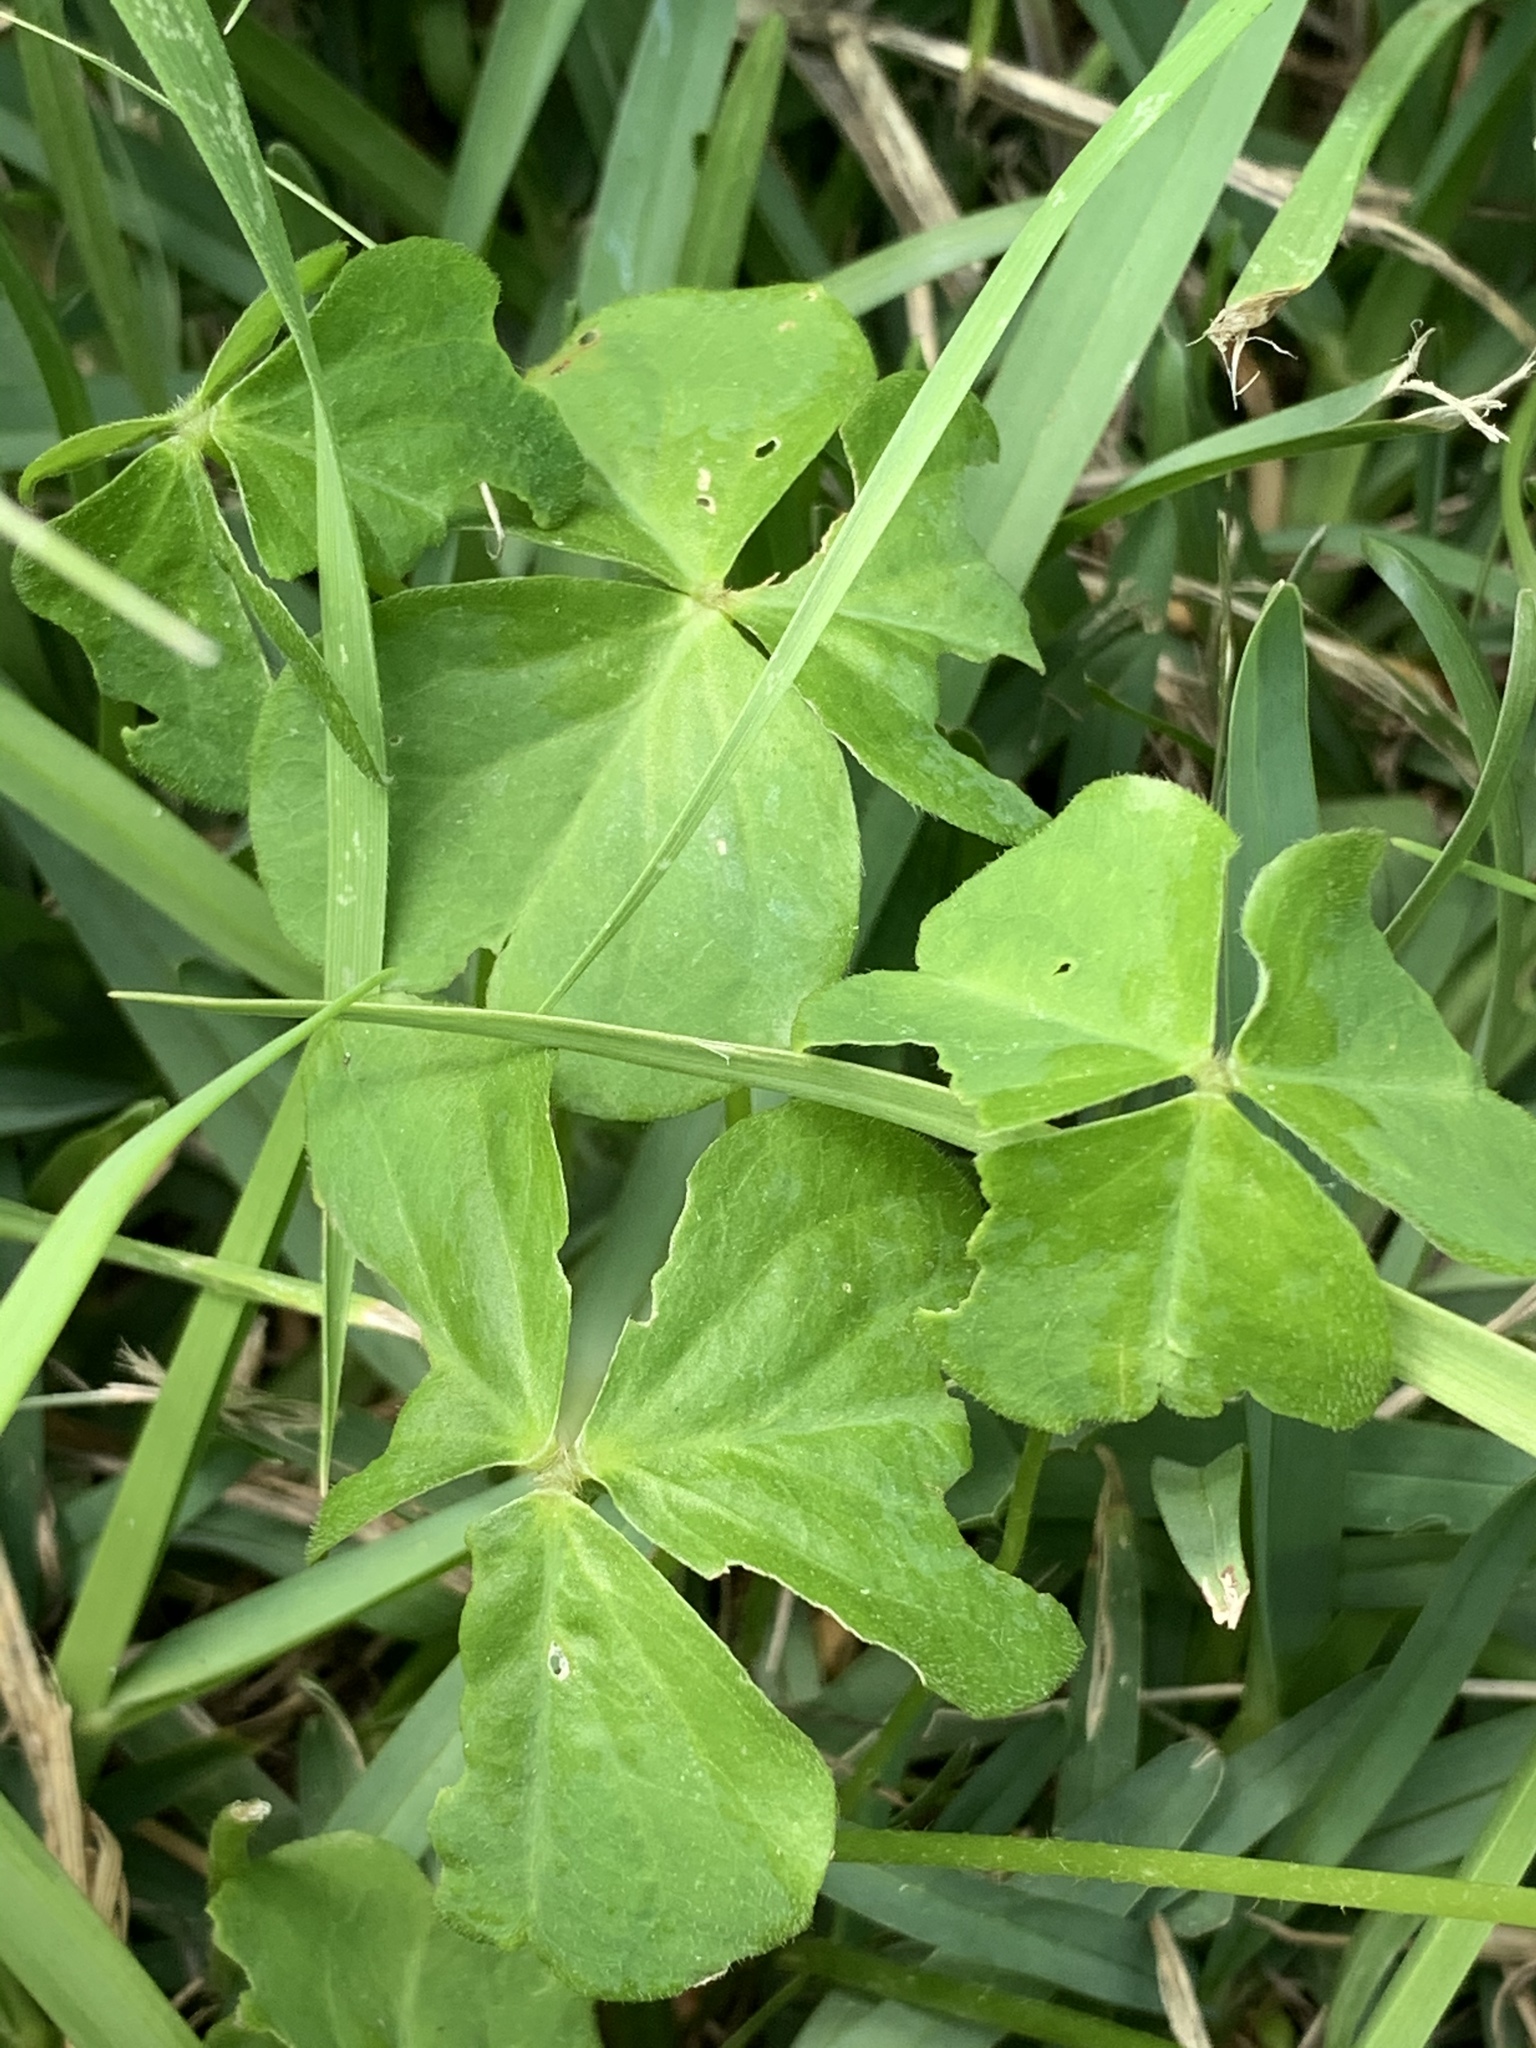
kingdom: Plantae
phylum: Tracheophyta
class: Magnoliopsida
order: Oxalidales
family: Oxalidaceae
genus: Oxalis
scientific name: Oxalis debilis
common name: Large-flowered pink-sorrel
